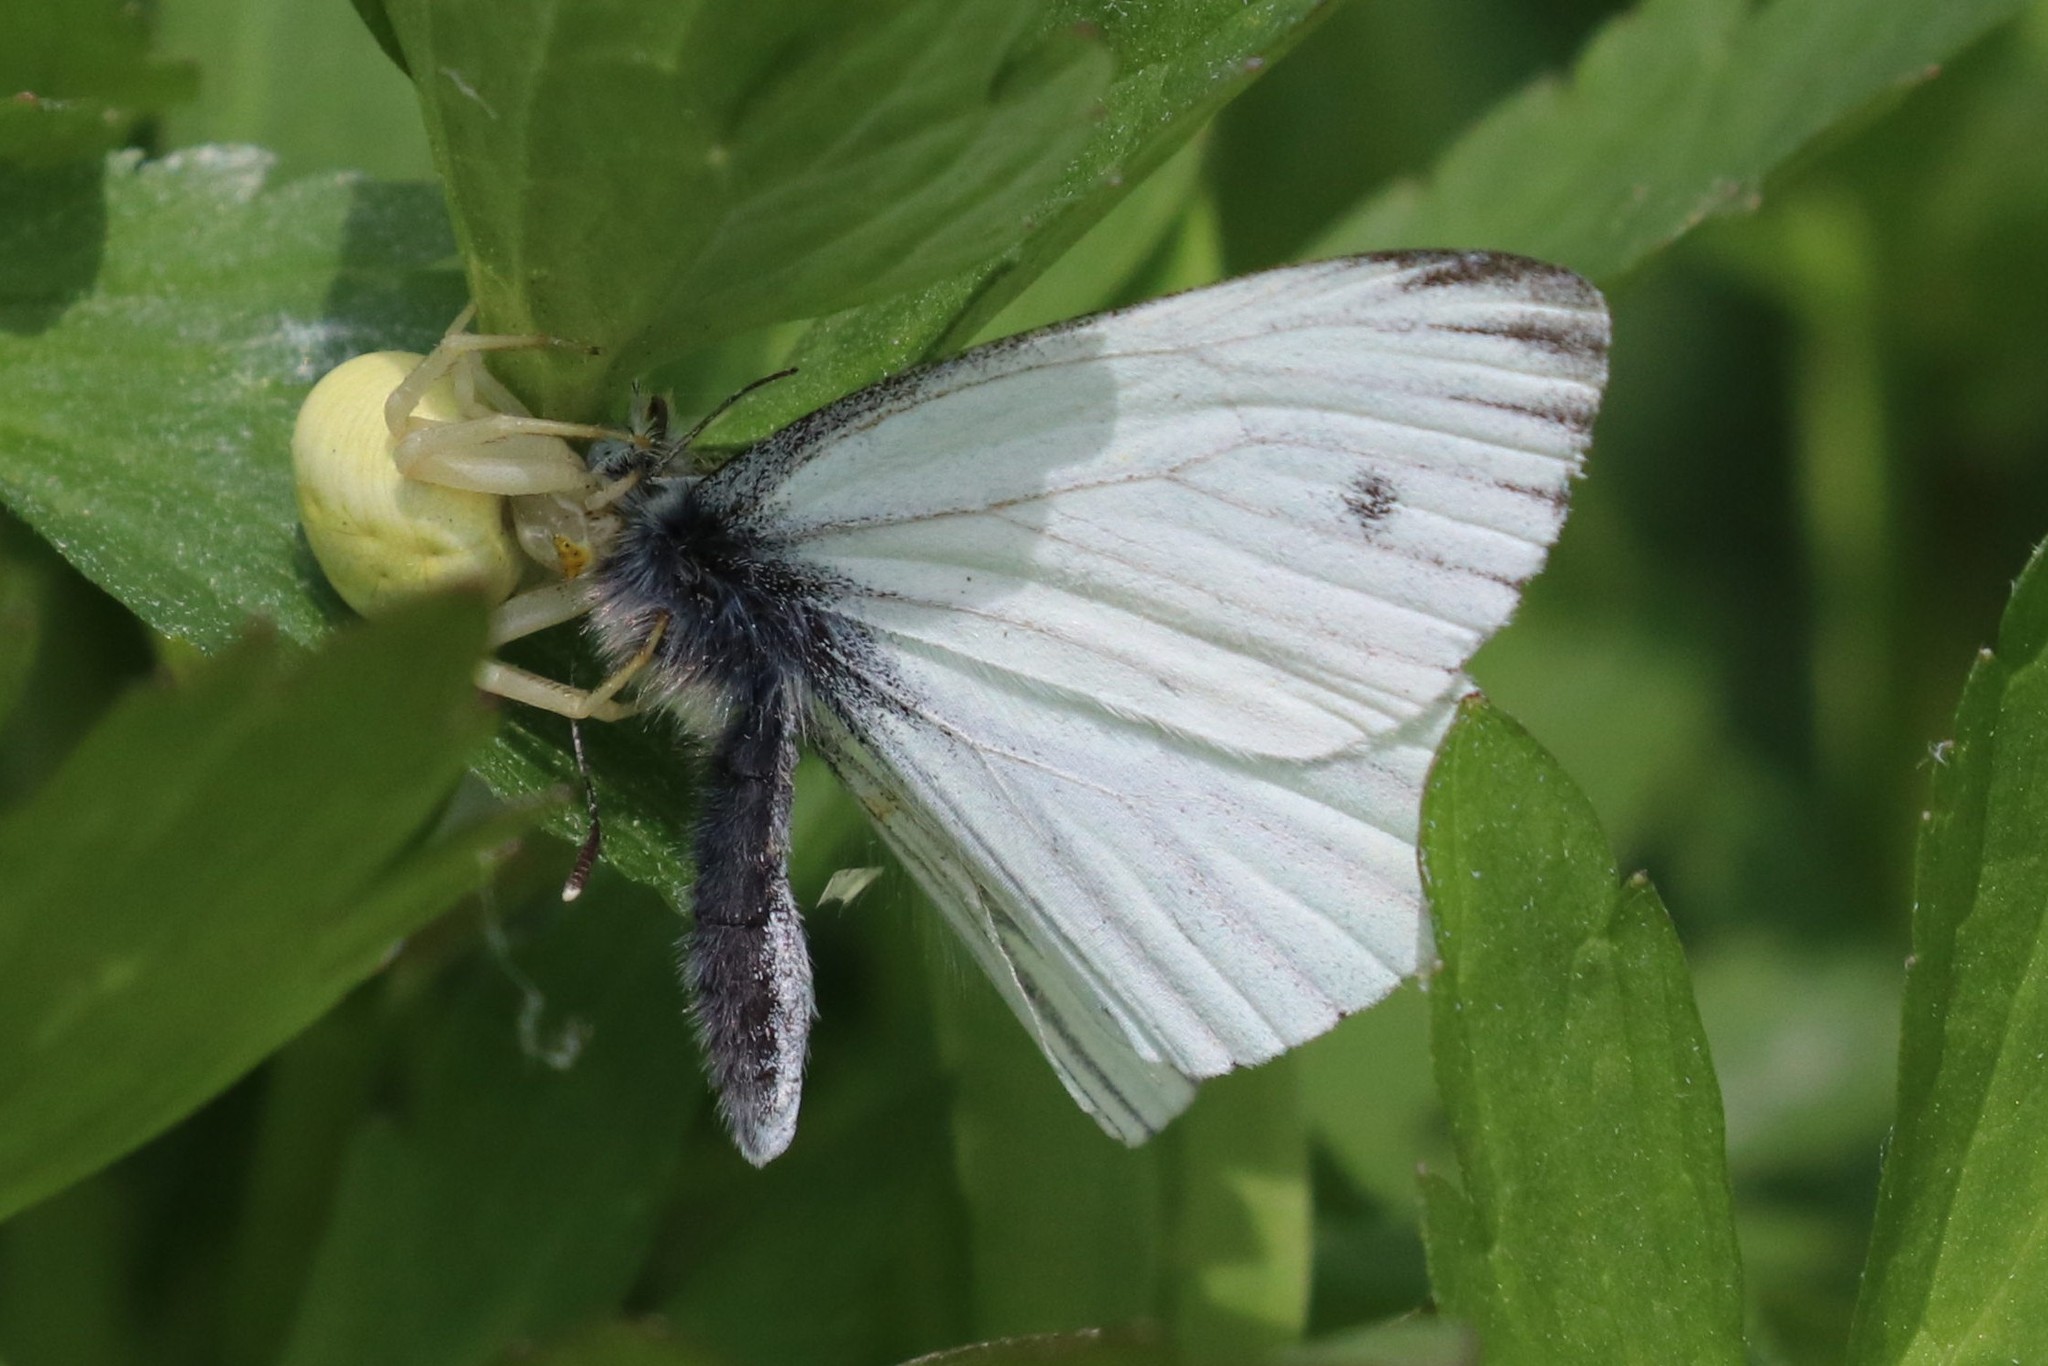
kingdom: Animalia
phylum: Arthropoda
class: Insecta
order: Lepidoptera
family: Pieridae
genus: Pieris
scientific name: Pieris napi
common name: Green-veined white
